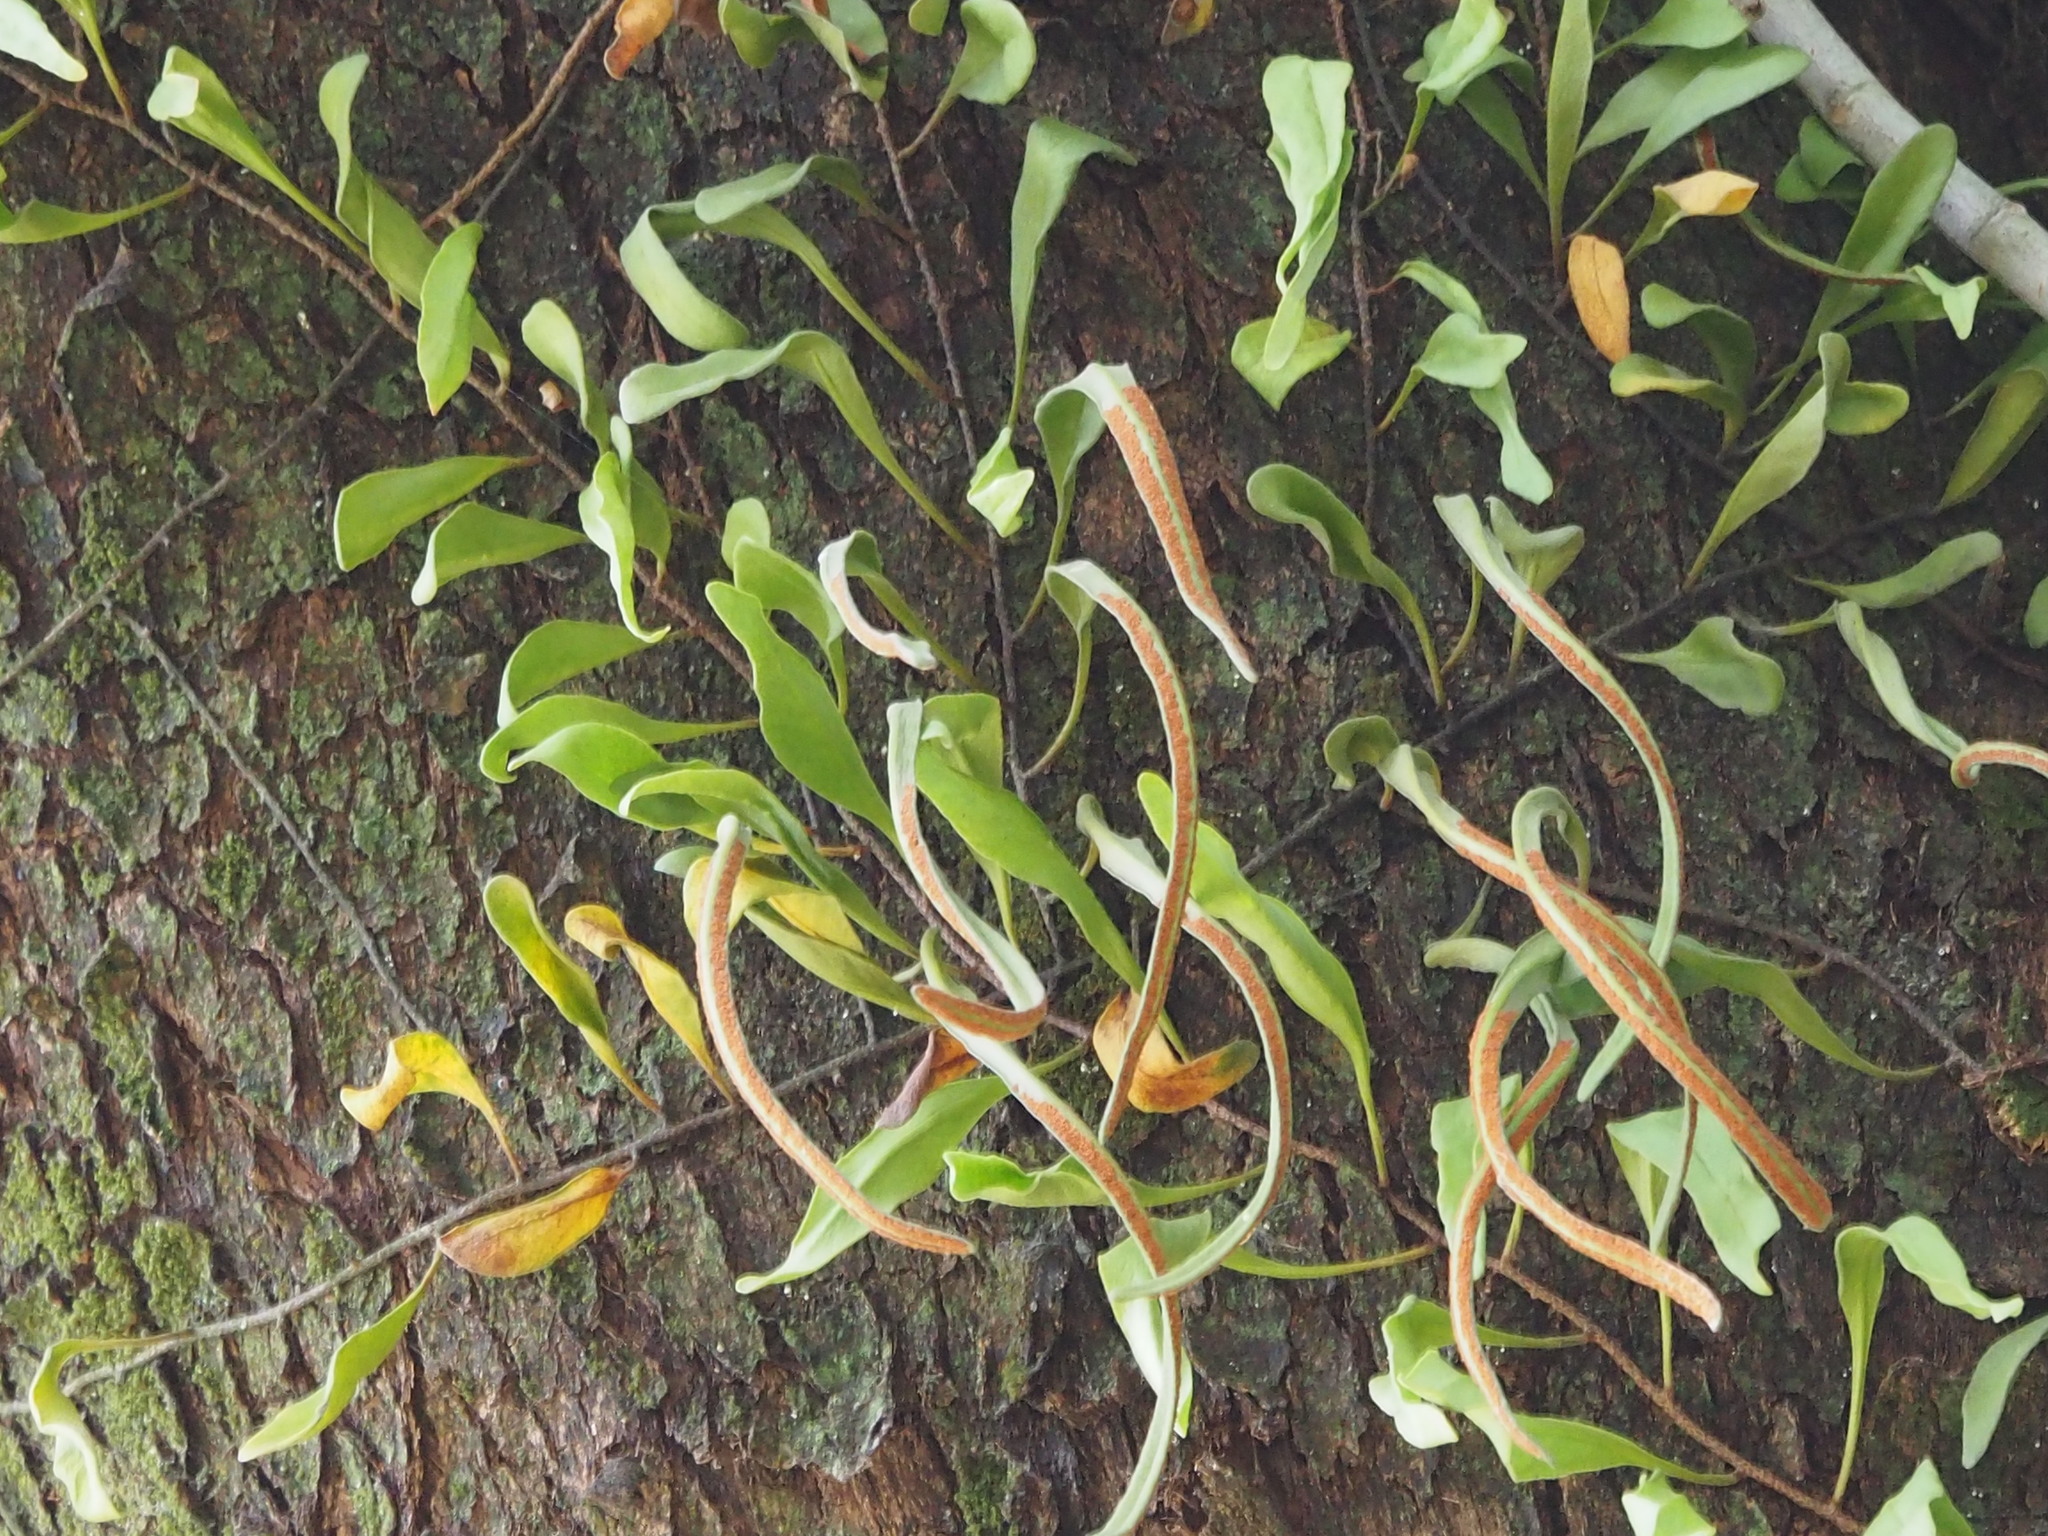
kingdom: Plantae
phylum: Tracheophyta
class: Polypodiopsida
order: Polypodiales
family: Polypodiaceae
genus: Pyrrosia
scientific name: Pyrrosia lanceolata
